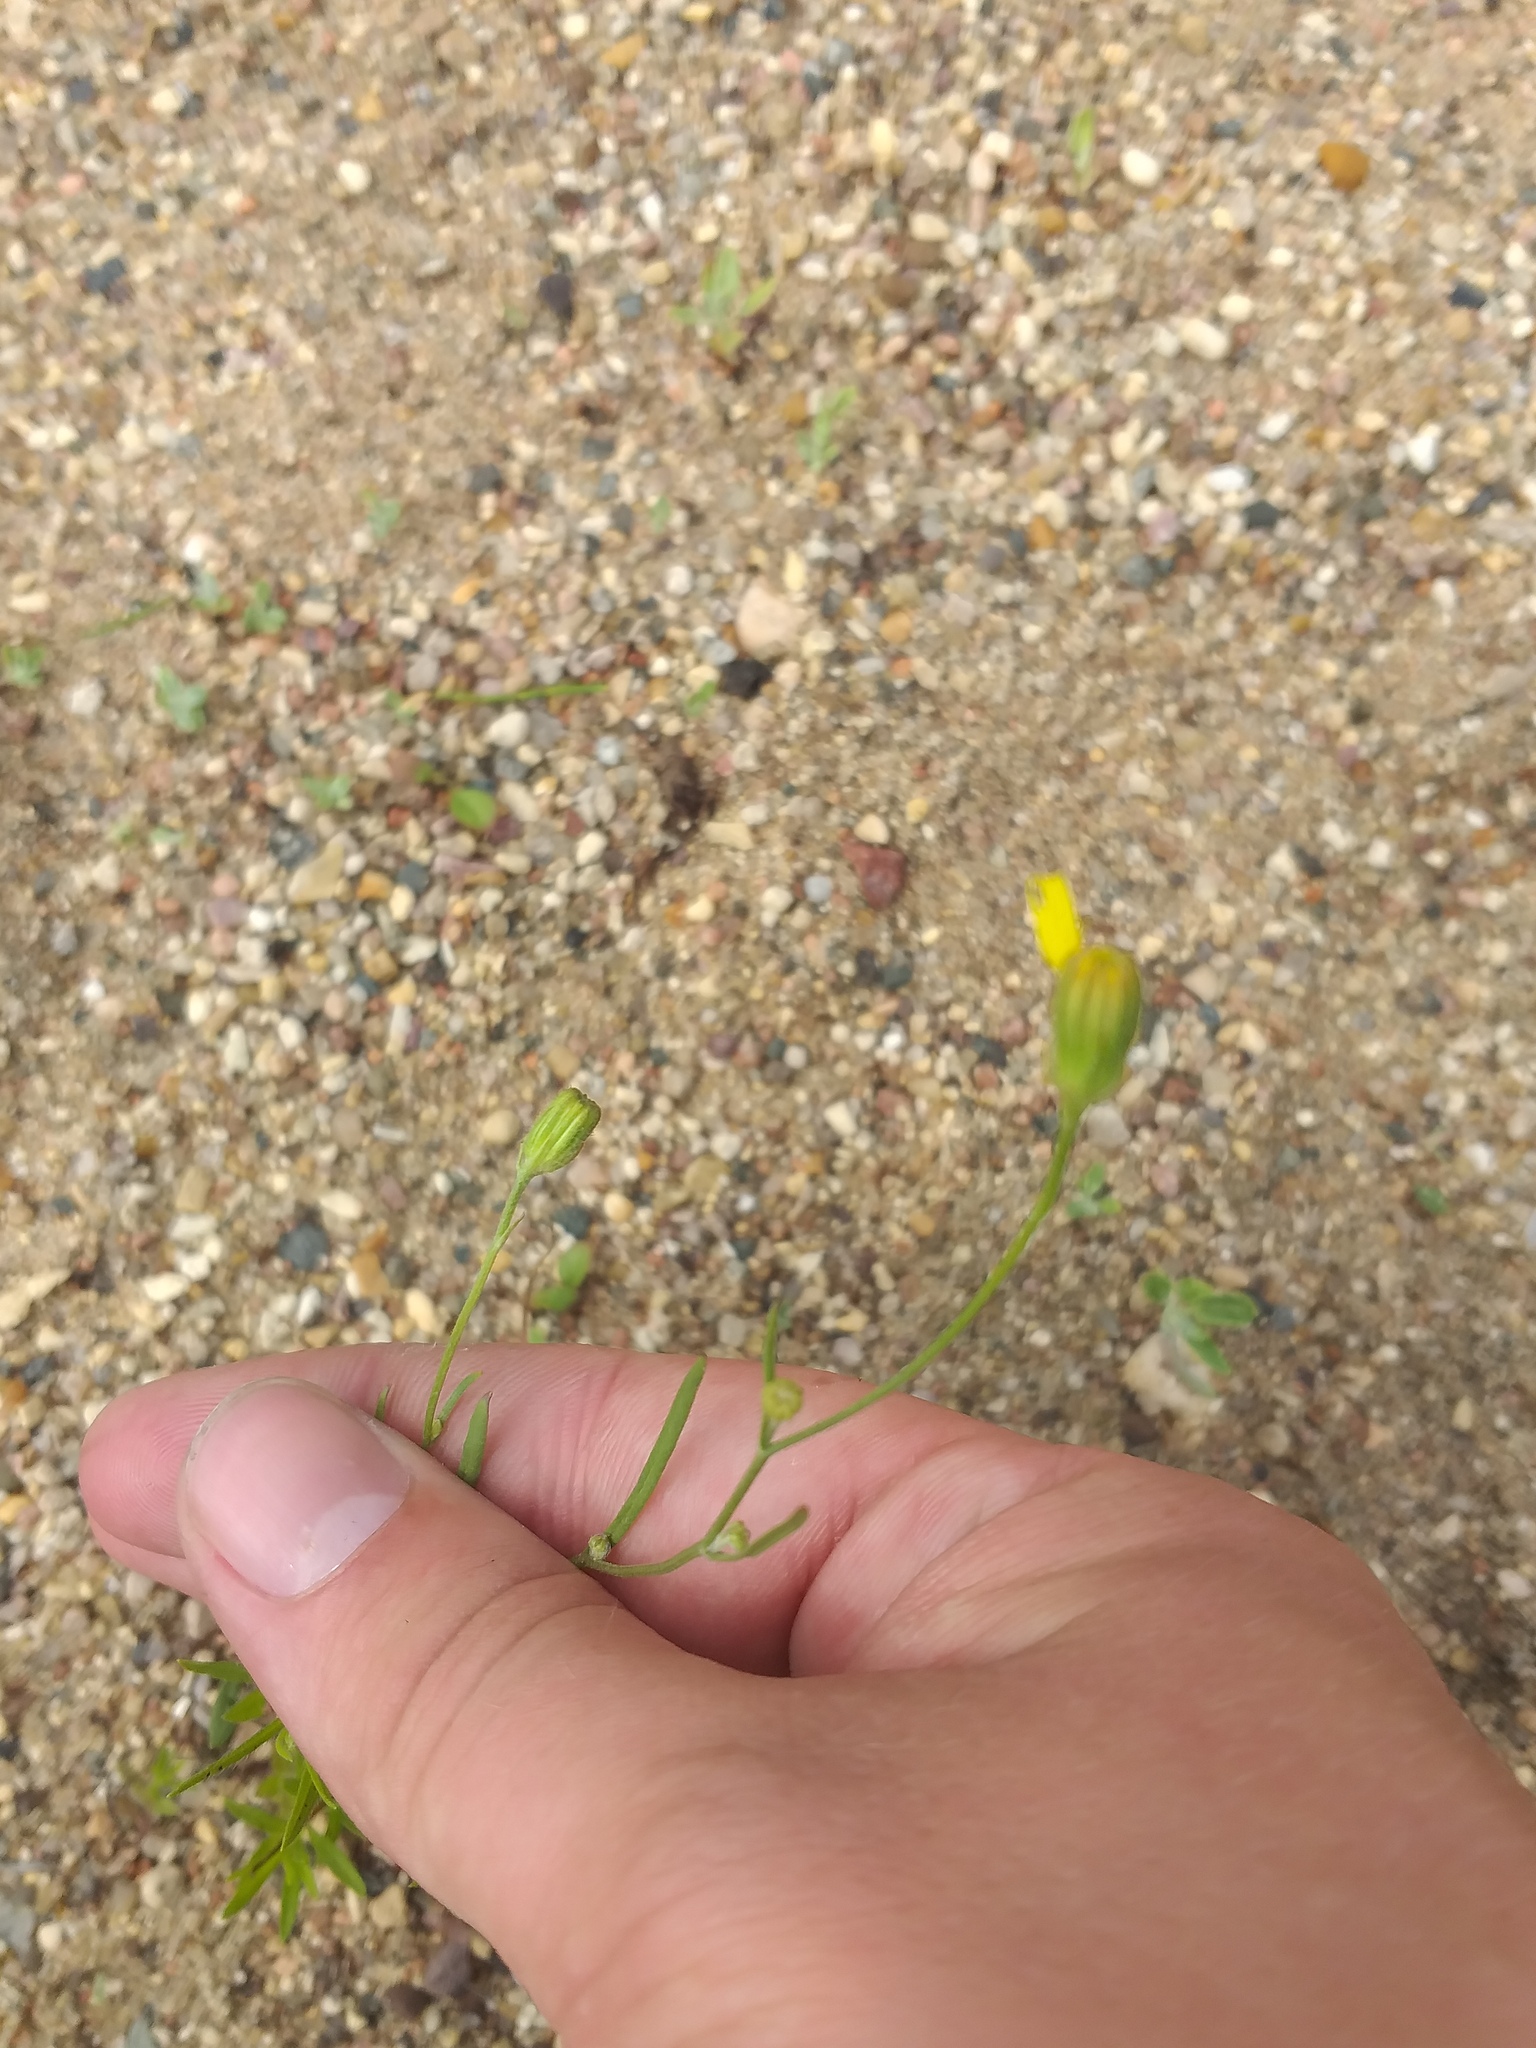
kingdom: Plantae
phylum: Tracheophyta
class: Magnoliopsida
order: Asterales
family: Asteraceae
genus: Crepis
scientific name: Crepis tectorum
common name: Narrow-leaved hawk's-beard
